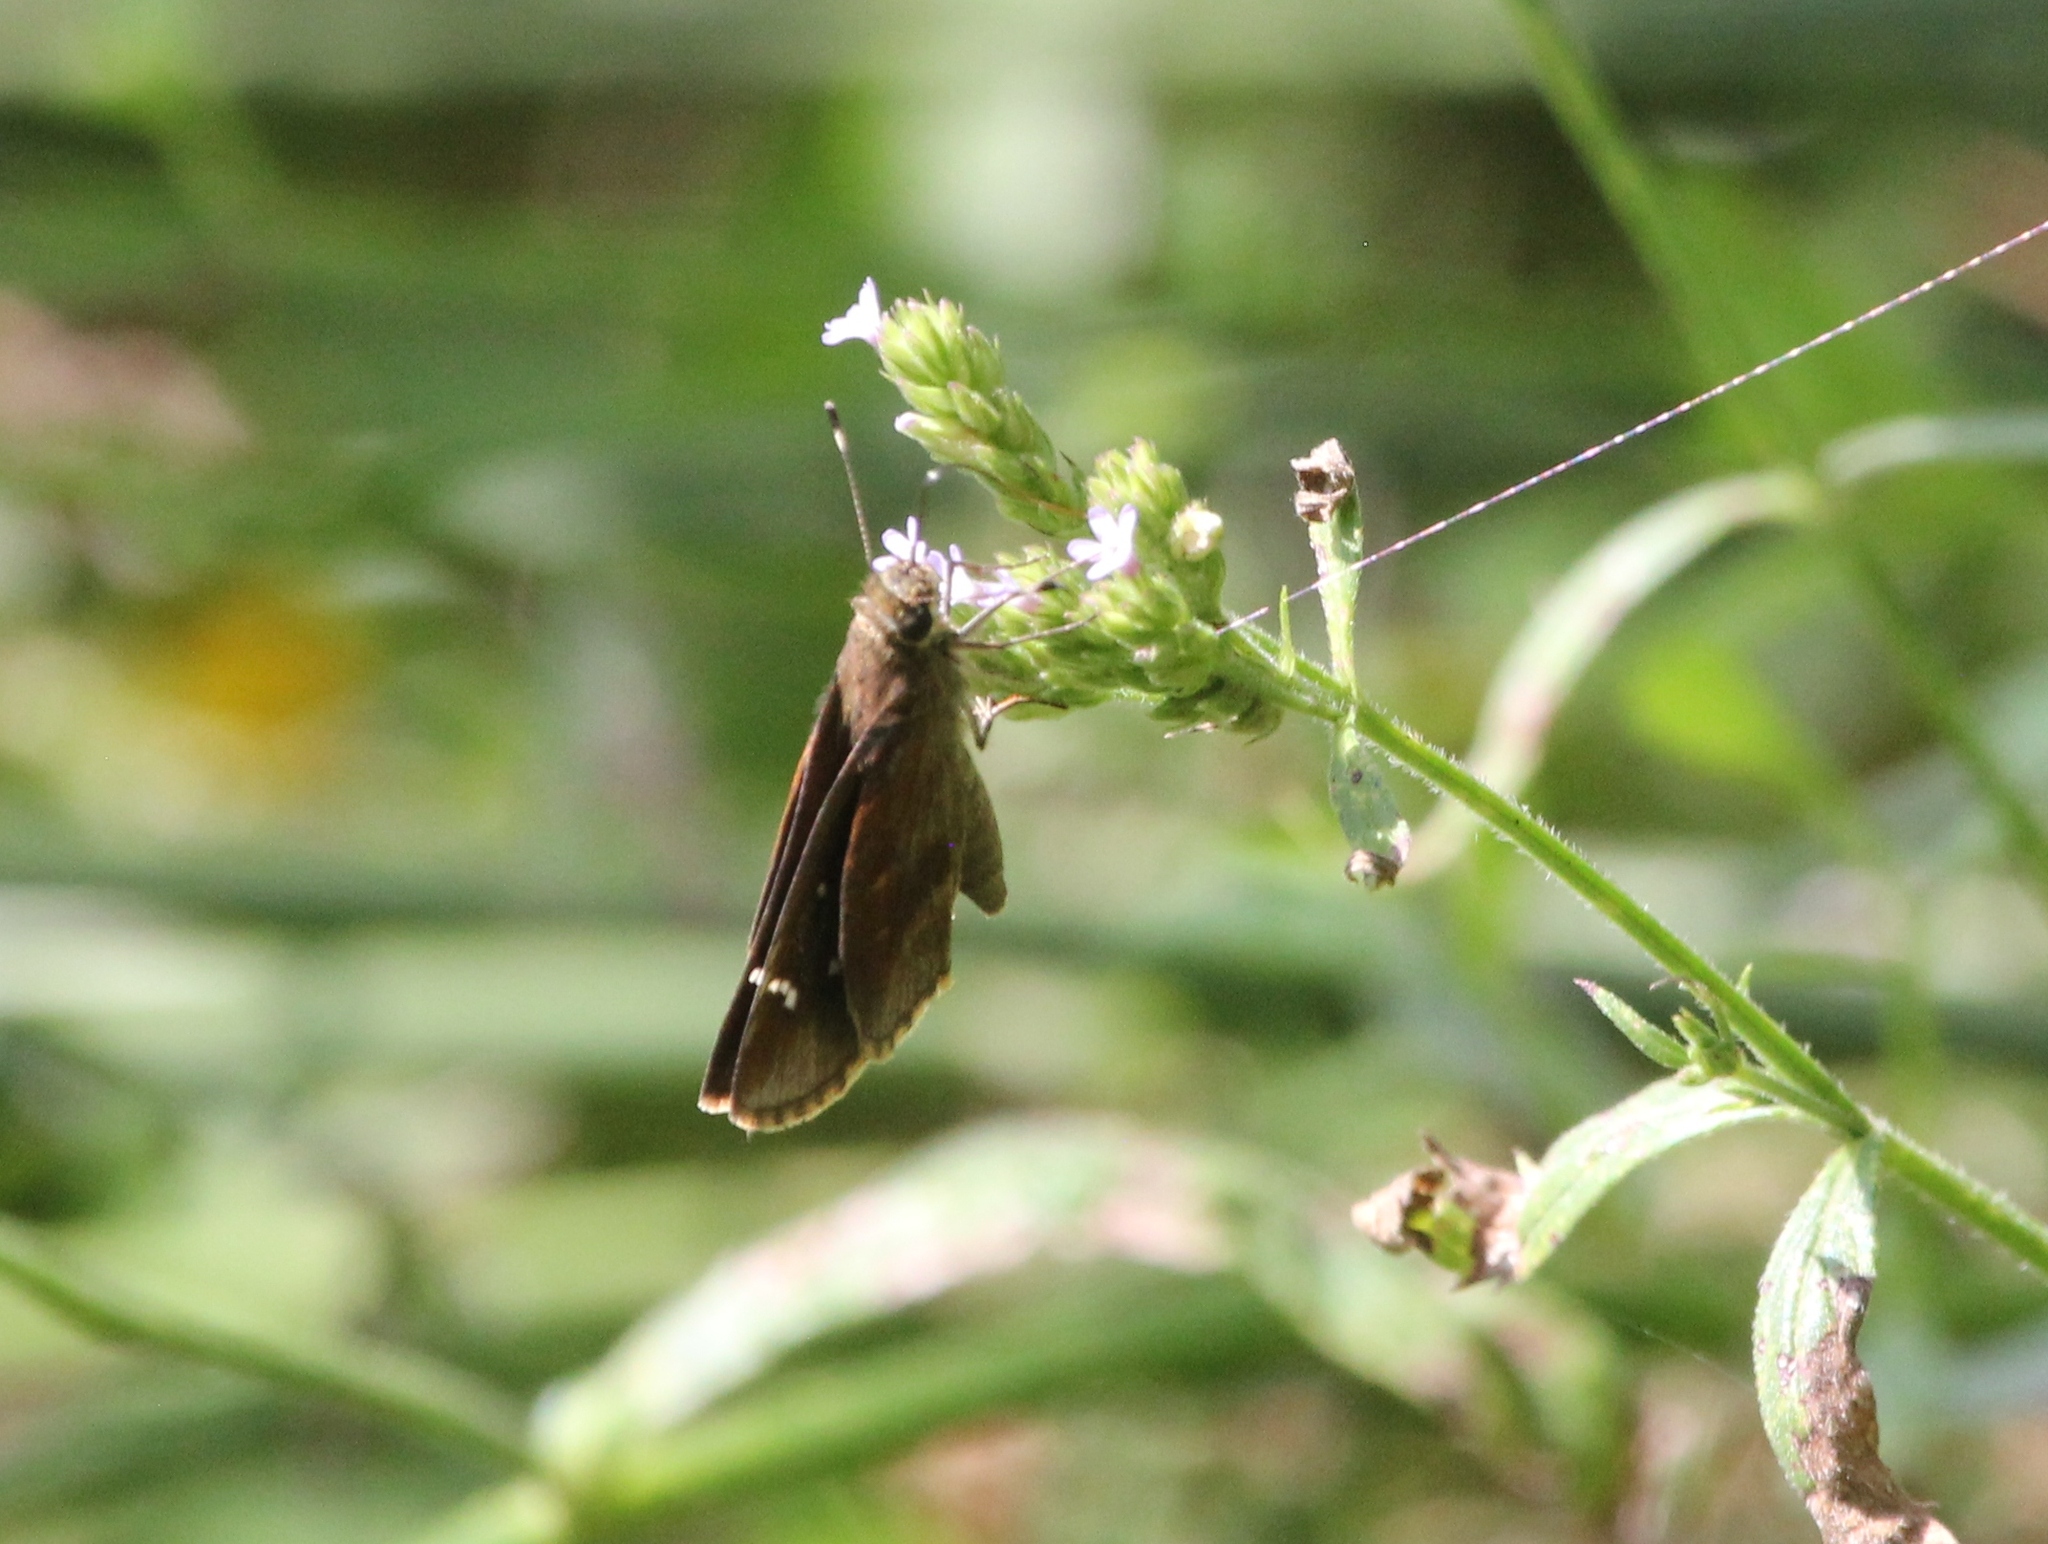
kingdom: Animalia
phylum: Arthropoda
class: Insecta
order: Lepidoptera
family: Hesperiidae
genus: Lerema
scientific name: Lerema accius
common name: Clouded skipper
